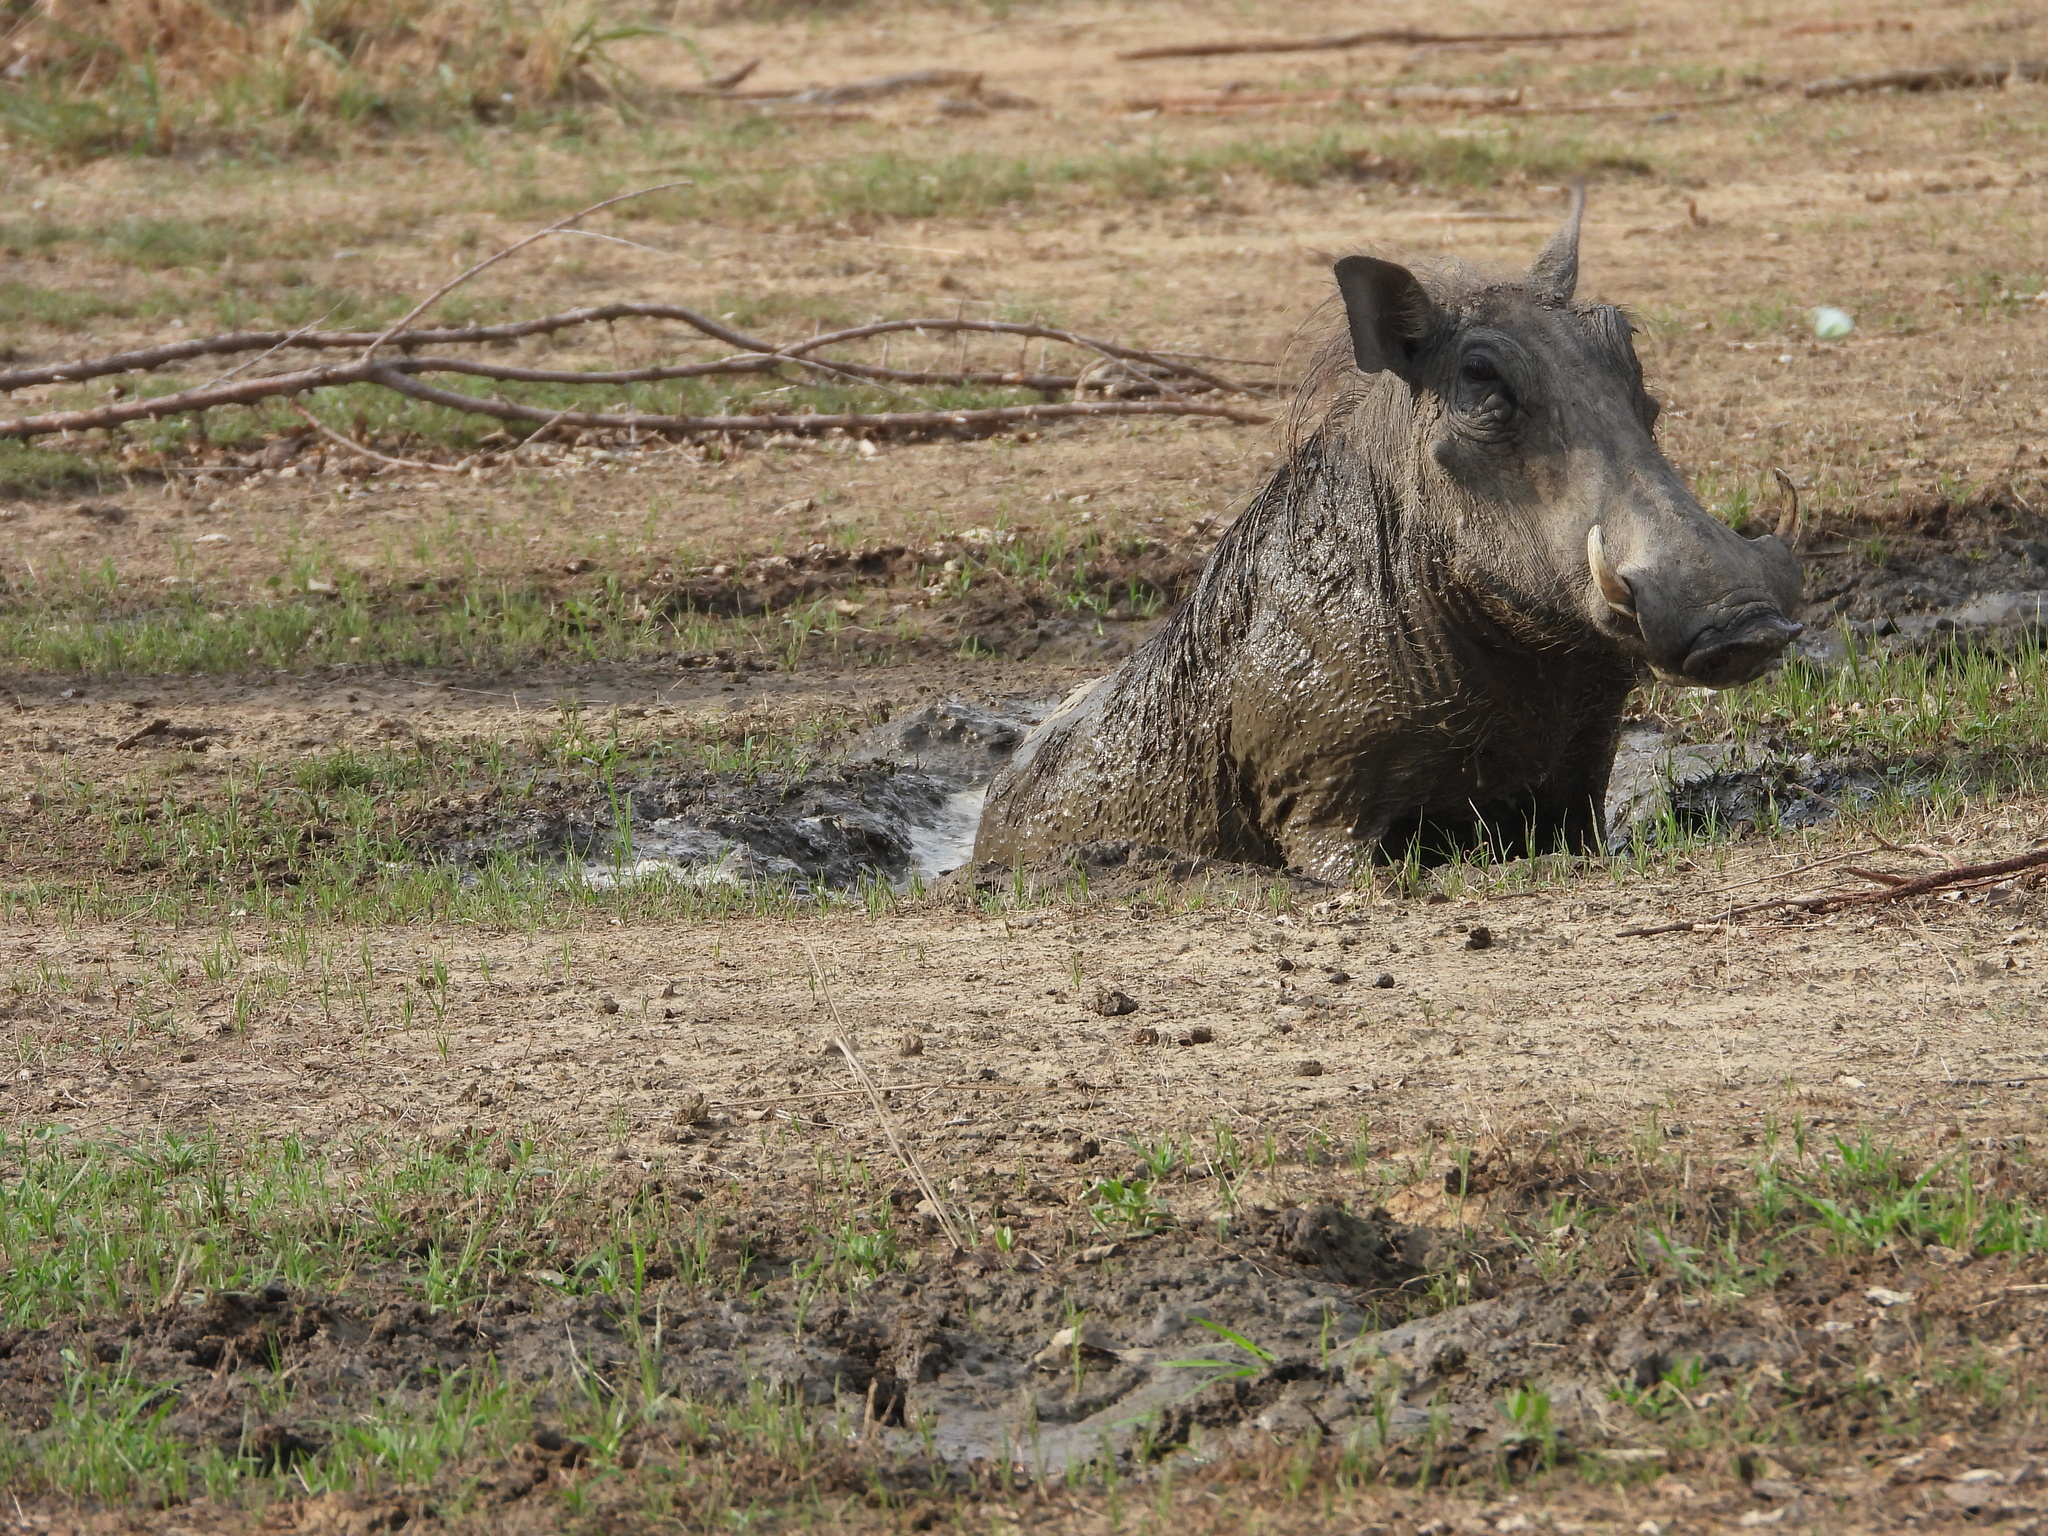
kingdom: Animalia
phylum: Chordata
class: Mammalia
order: Artiodactyla
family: Suidae
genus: Phacochoerus
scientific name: Phacochoerus africanus
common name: Common warthog
